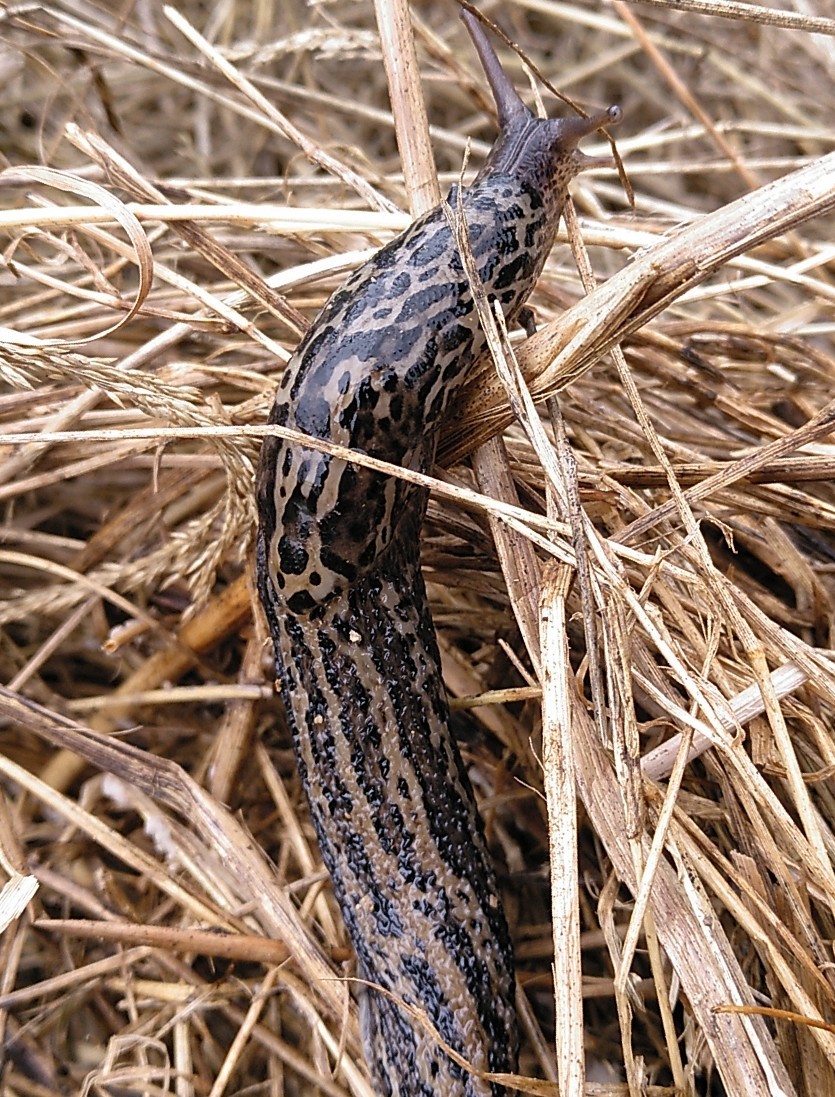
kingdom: Animalia
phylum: Mollusca
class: Gastropoda
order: Stylommatophora
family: Limacidae
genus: Limax
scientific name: Limax maximus
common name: Great grey slug
